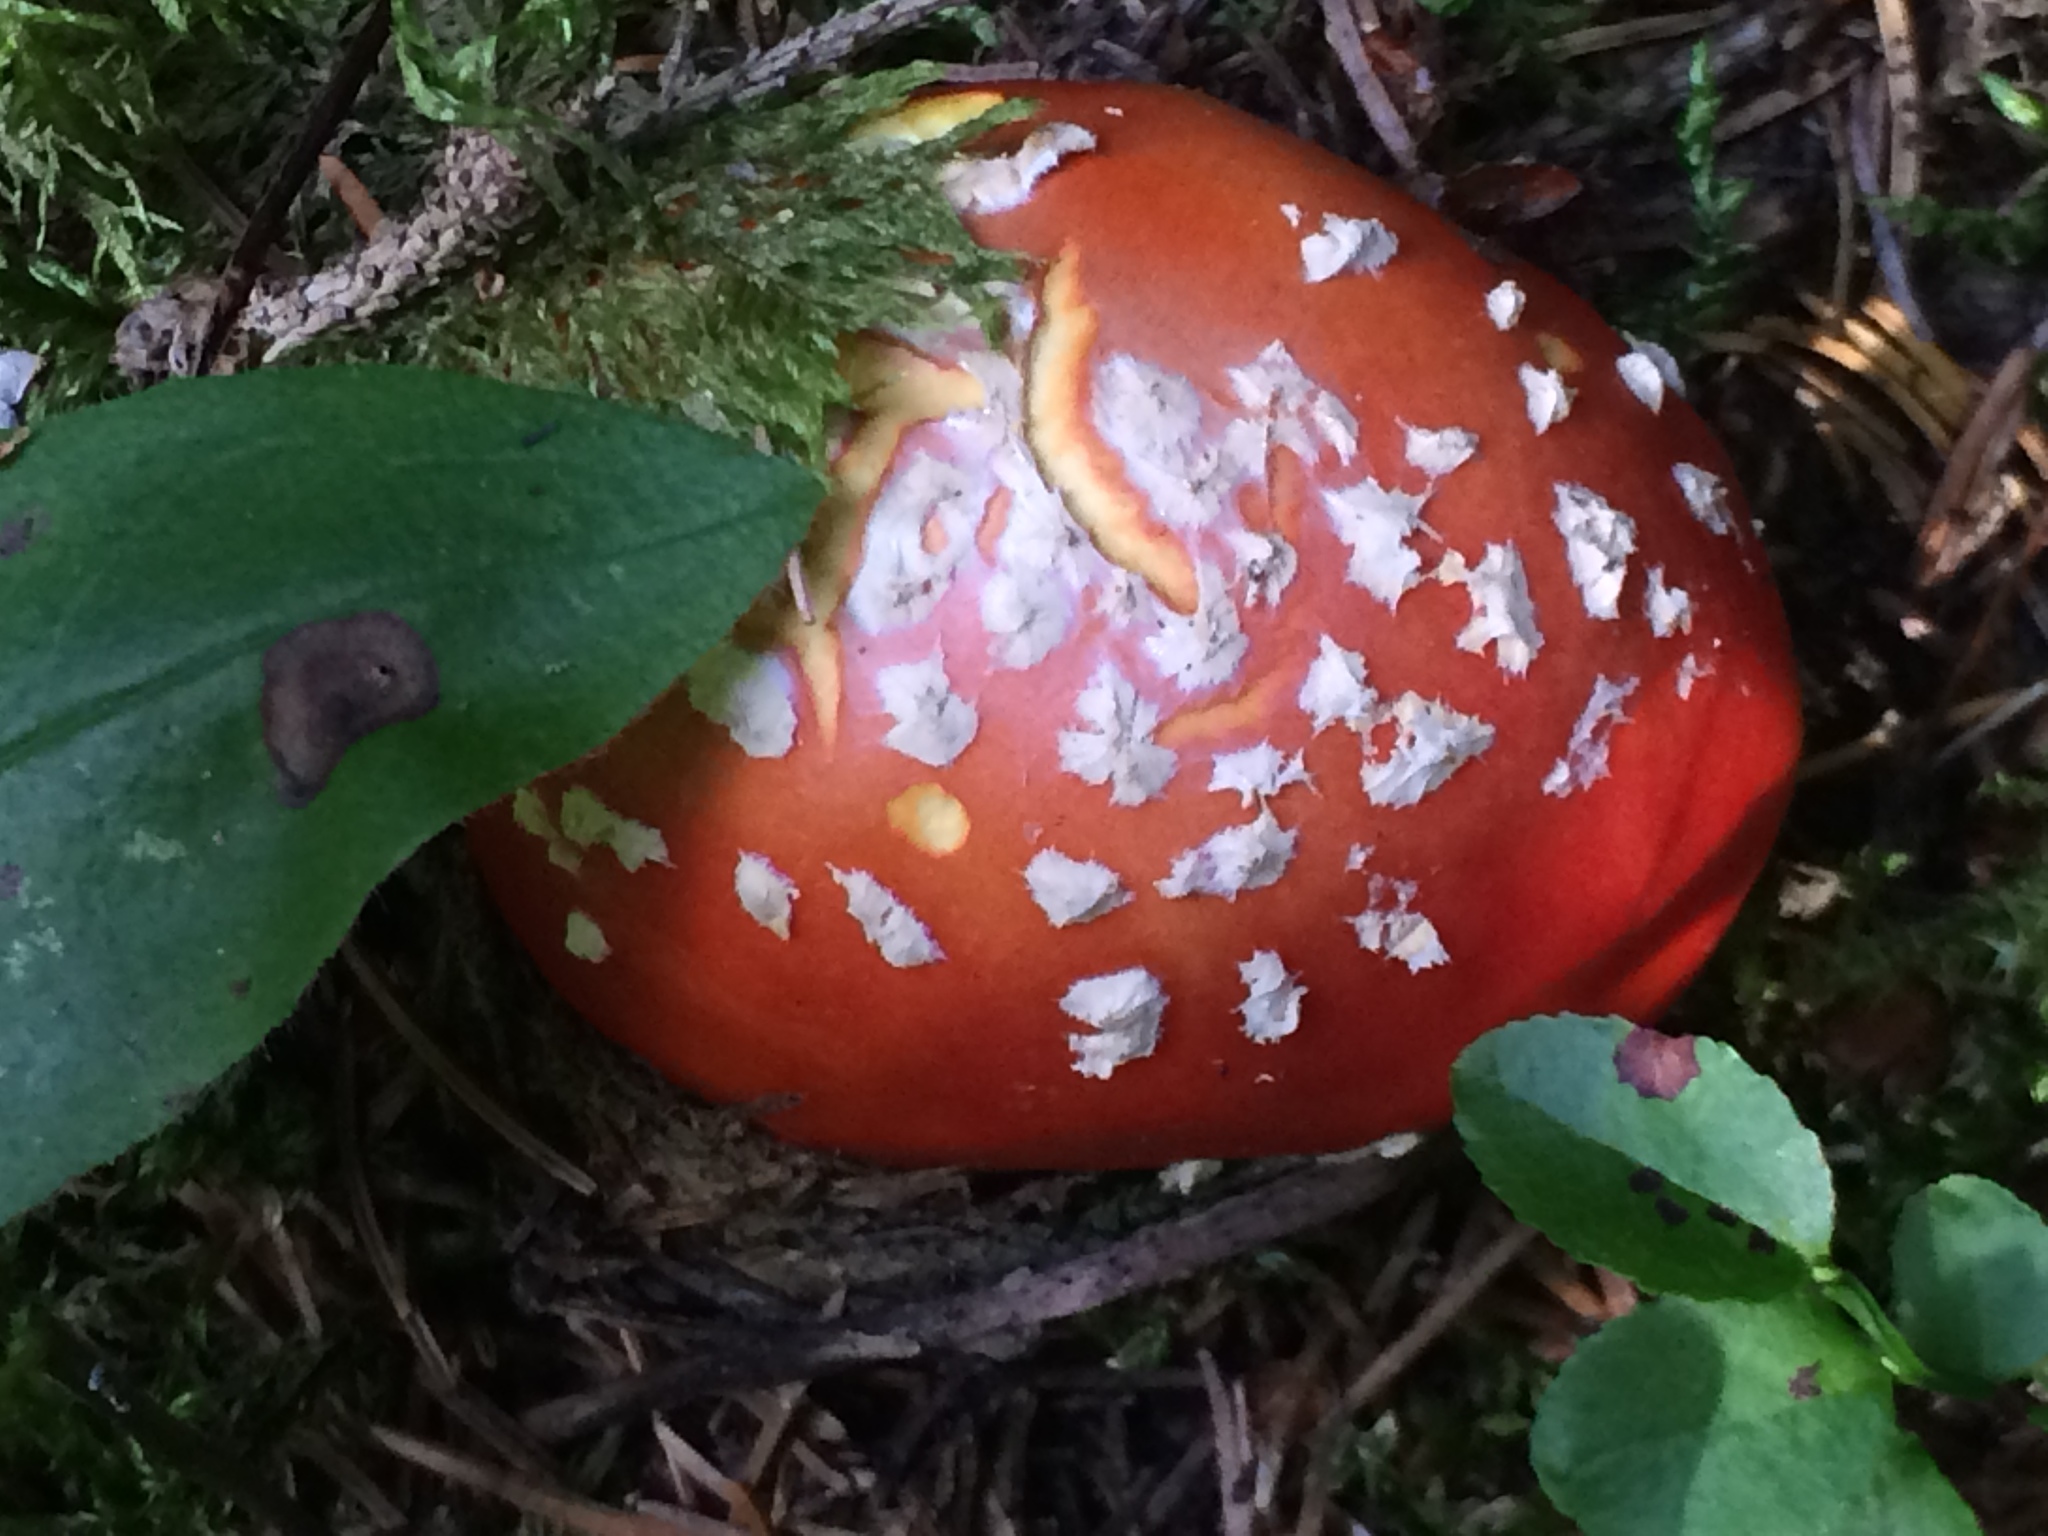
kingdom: Fungi
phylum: Basidiomycota
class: Agaricomycetes
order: Agaricales
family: Amanitaceae
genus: Amanita
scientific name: Amanita muscaria
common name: Fly agaric
